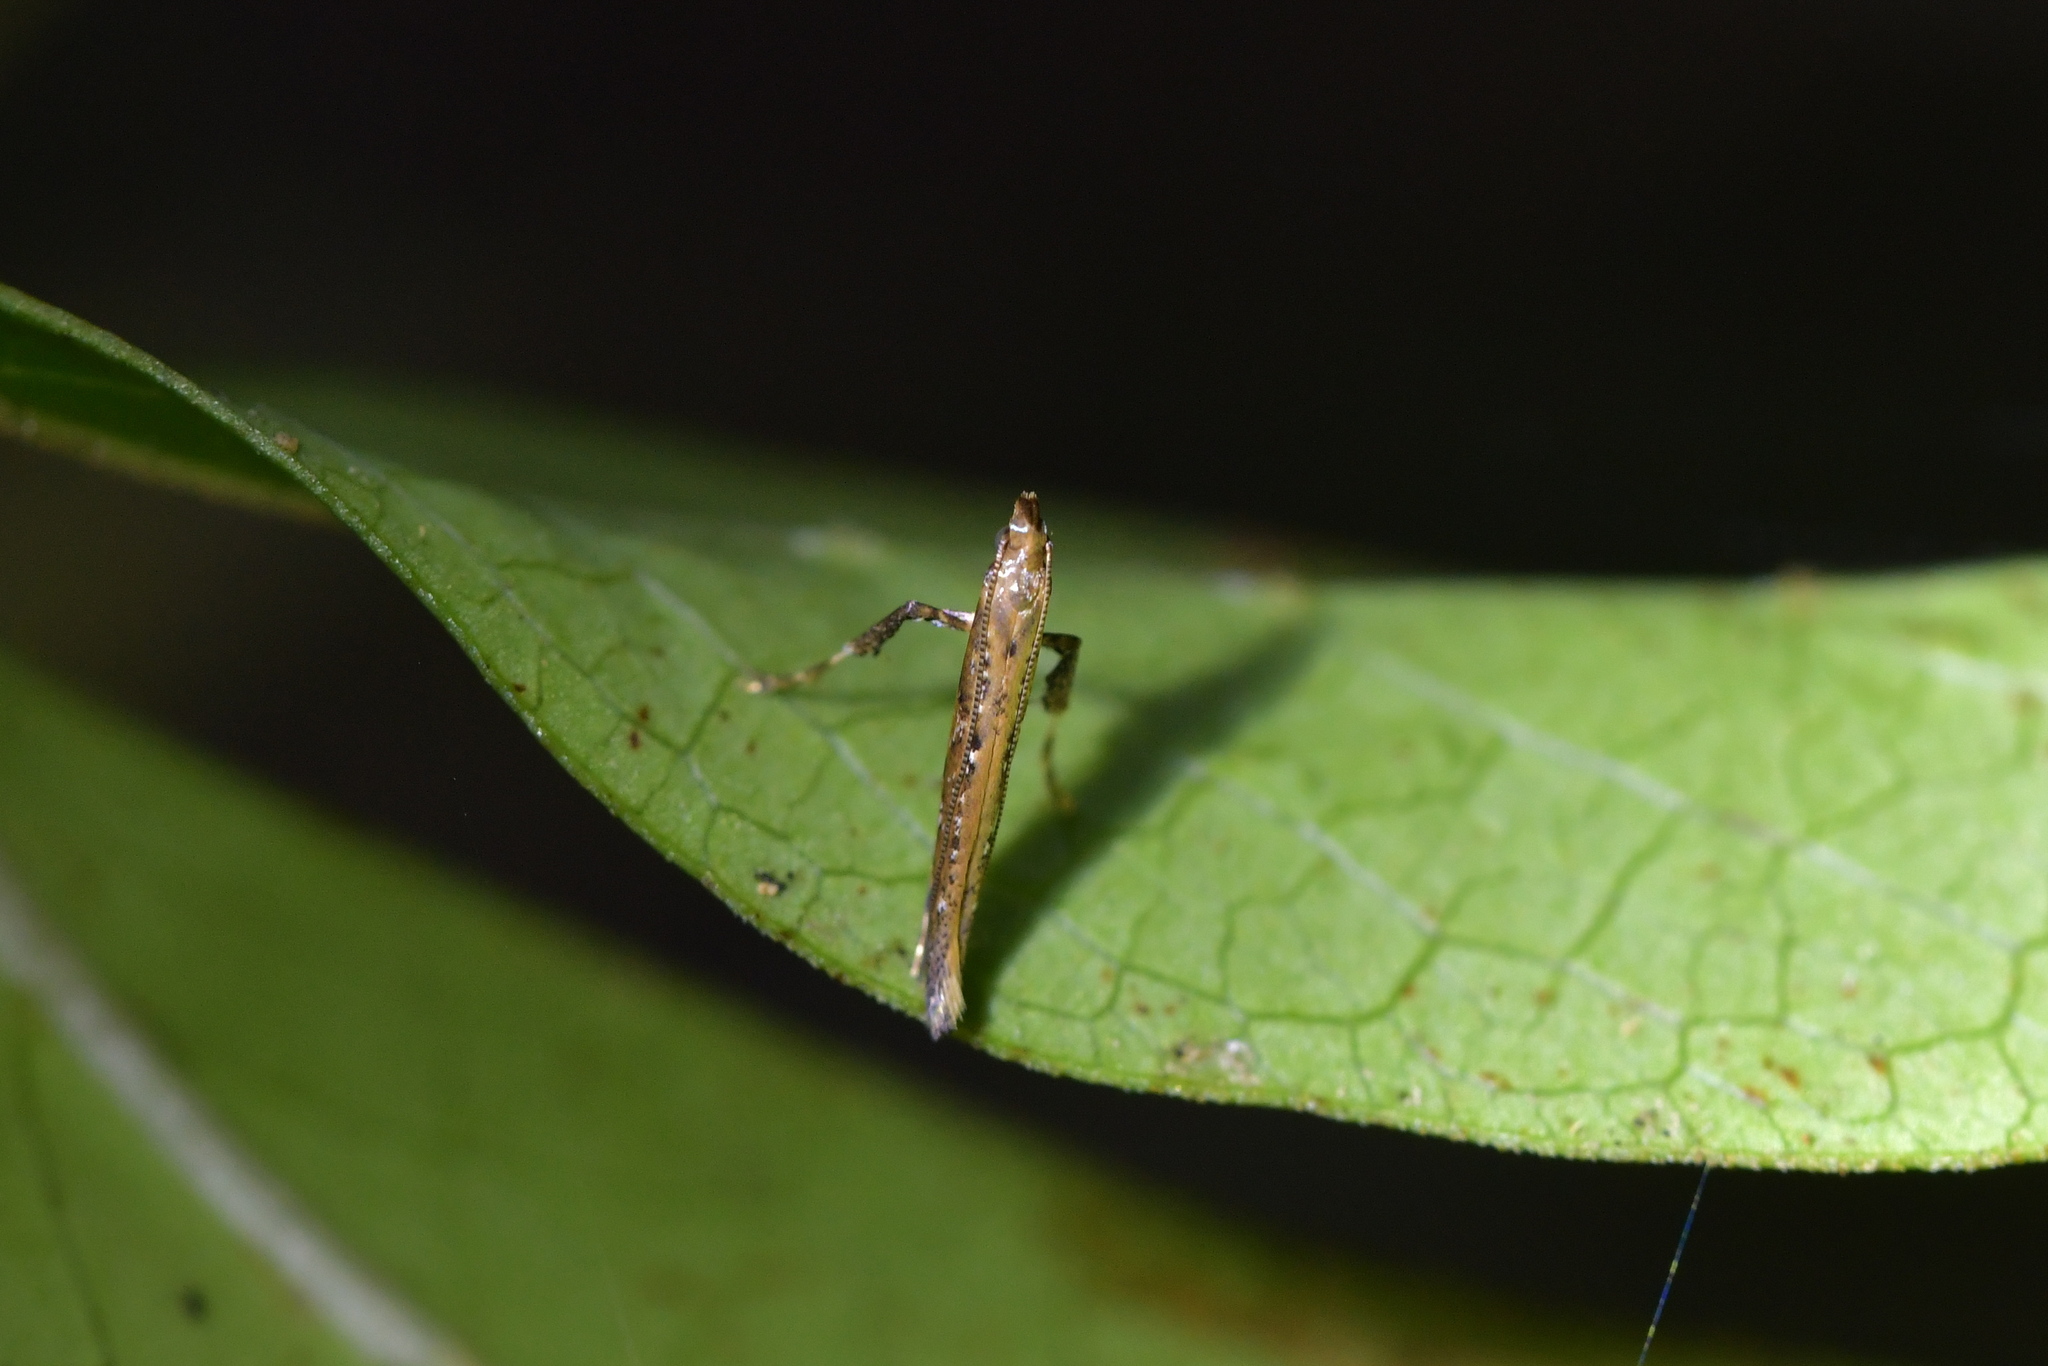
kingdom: Animalia
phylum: Arthropoda
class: Insecta
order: Lepidoptera
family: Gracillariidae
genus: Caloptilia
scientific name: Caloptilia linearis
